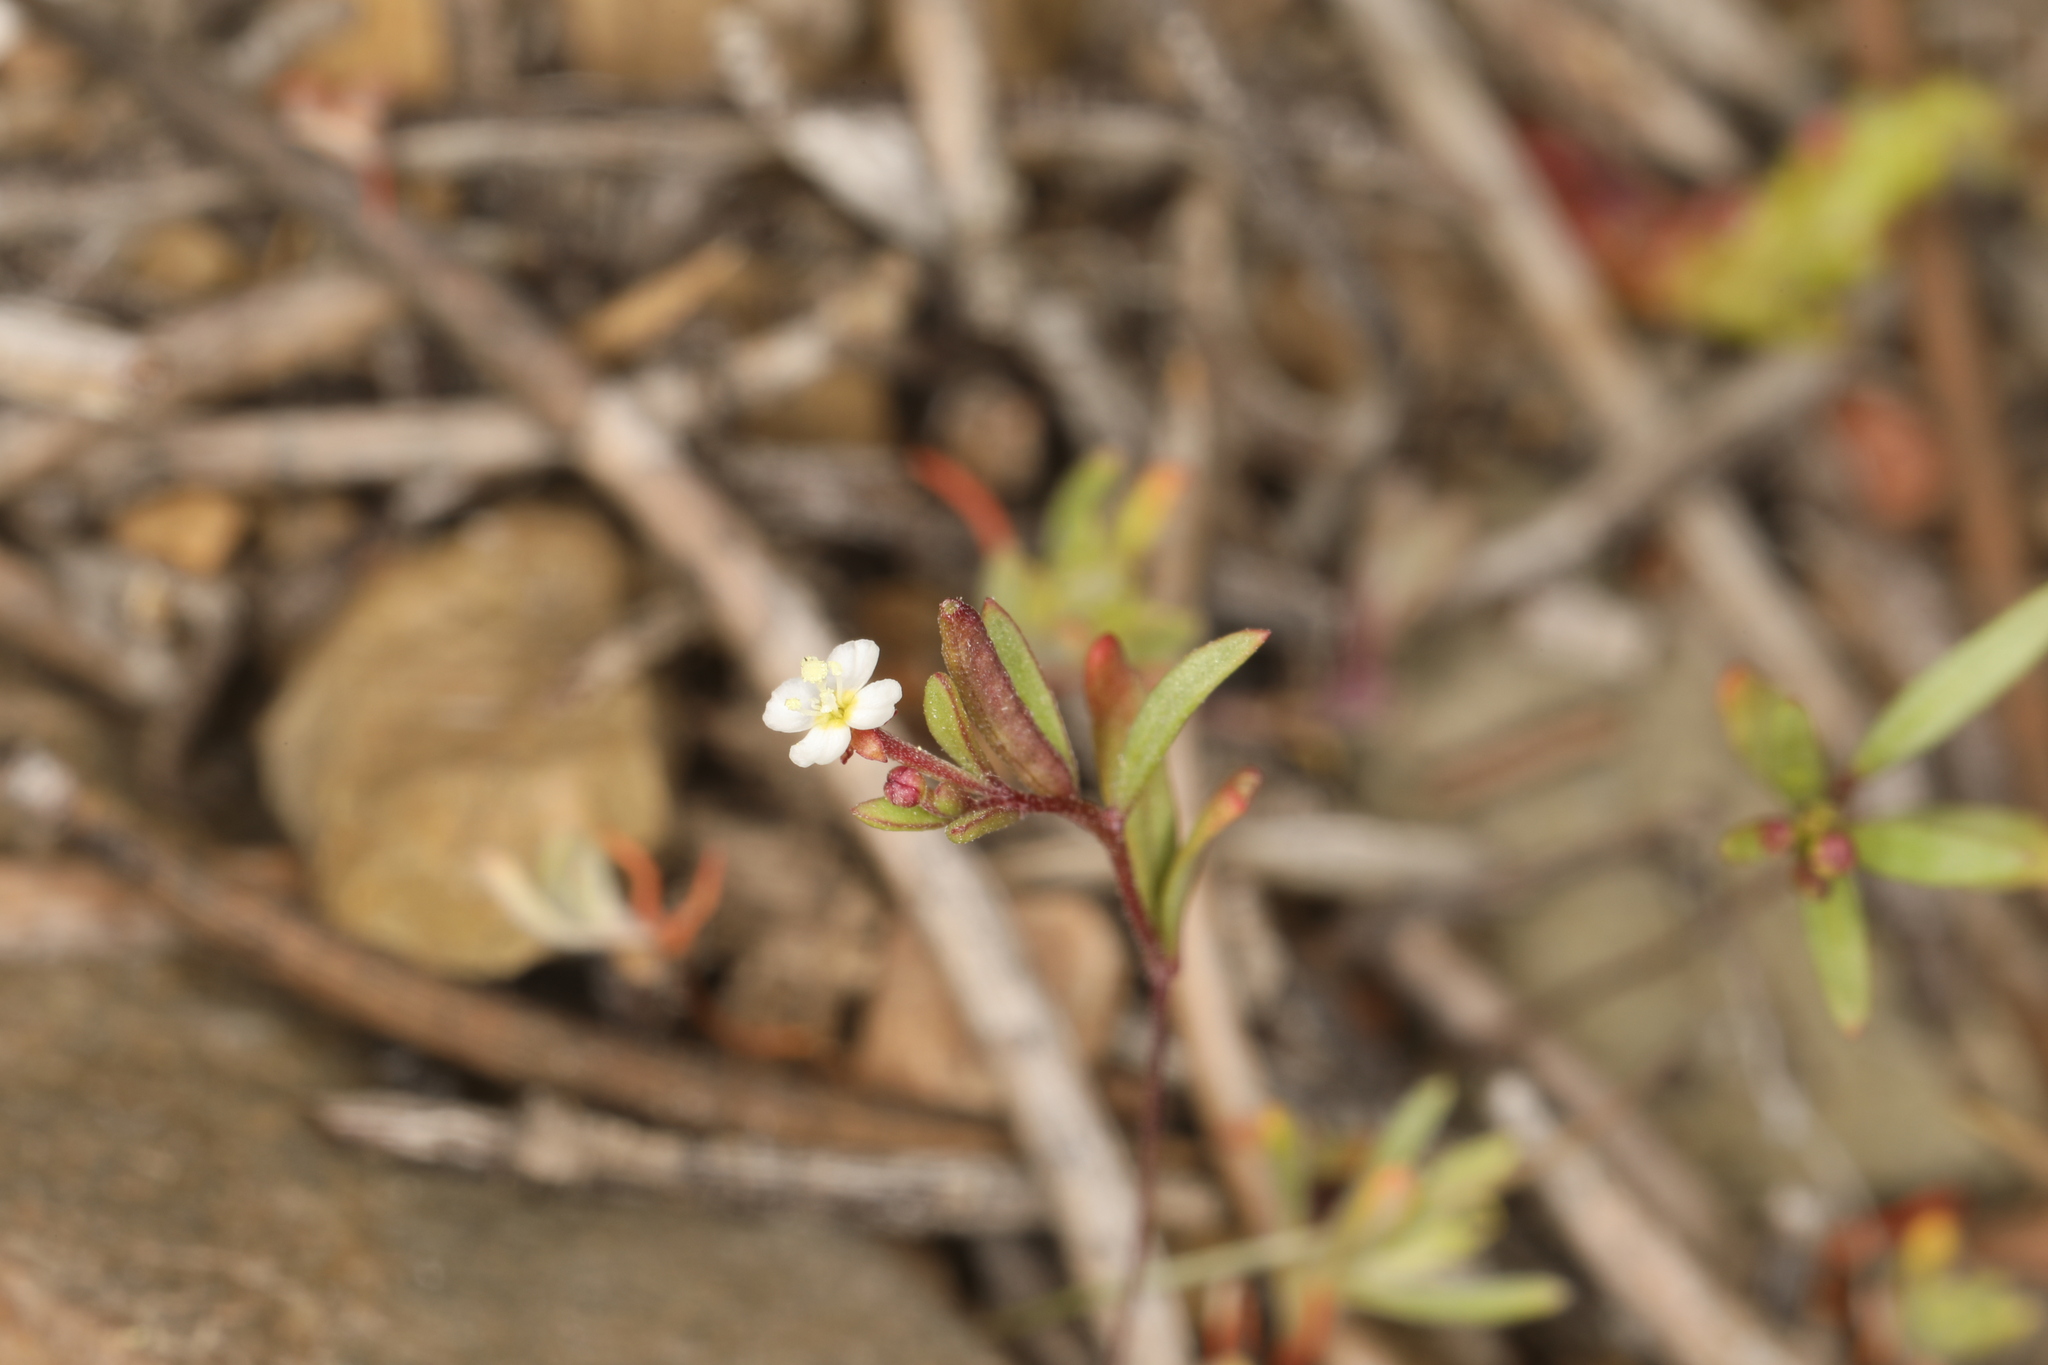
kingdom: Plantae
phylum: Tracheophyta
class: Magnoliopsida
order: Myrtales
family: Onagraceae
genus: Chylismiella
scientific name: Chylismiella pterosperma
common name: Wingfruit suncup
